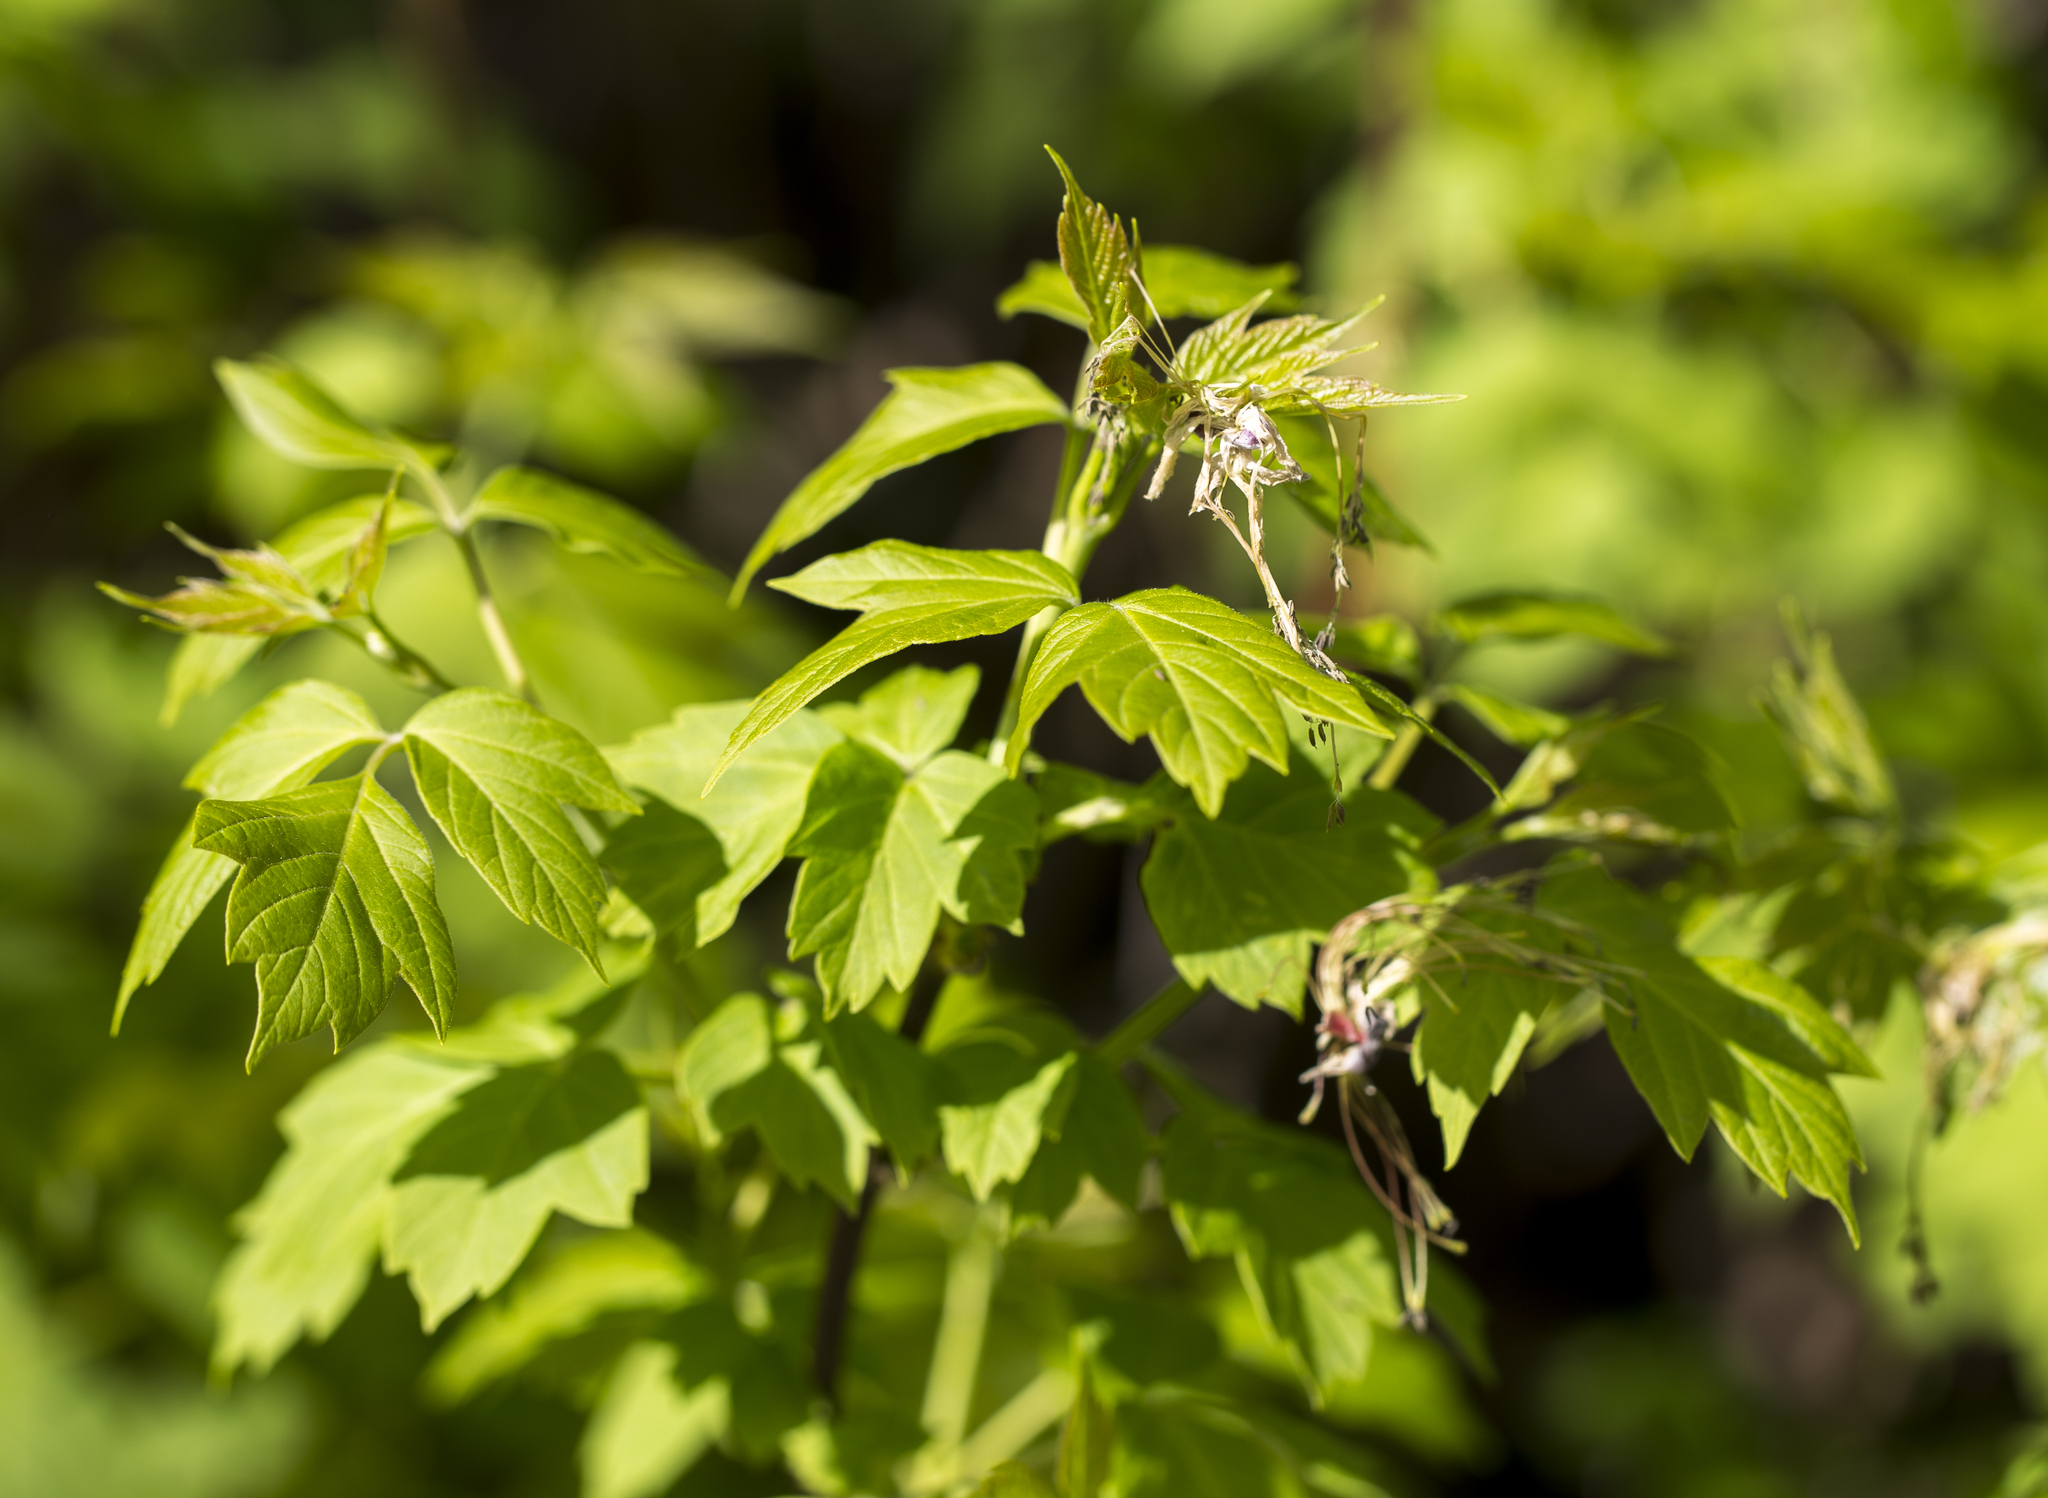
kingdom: Plantae
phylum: Tracheophyta
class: Magnoliopsida
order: Sapindales
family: Sapindaceae
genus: Acer
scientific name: Acer negundo
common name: Ashleaf maple
